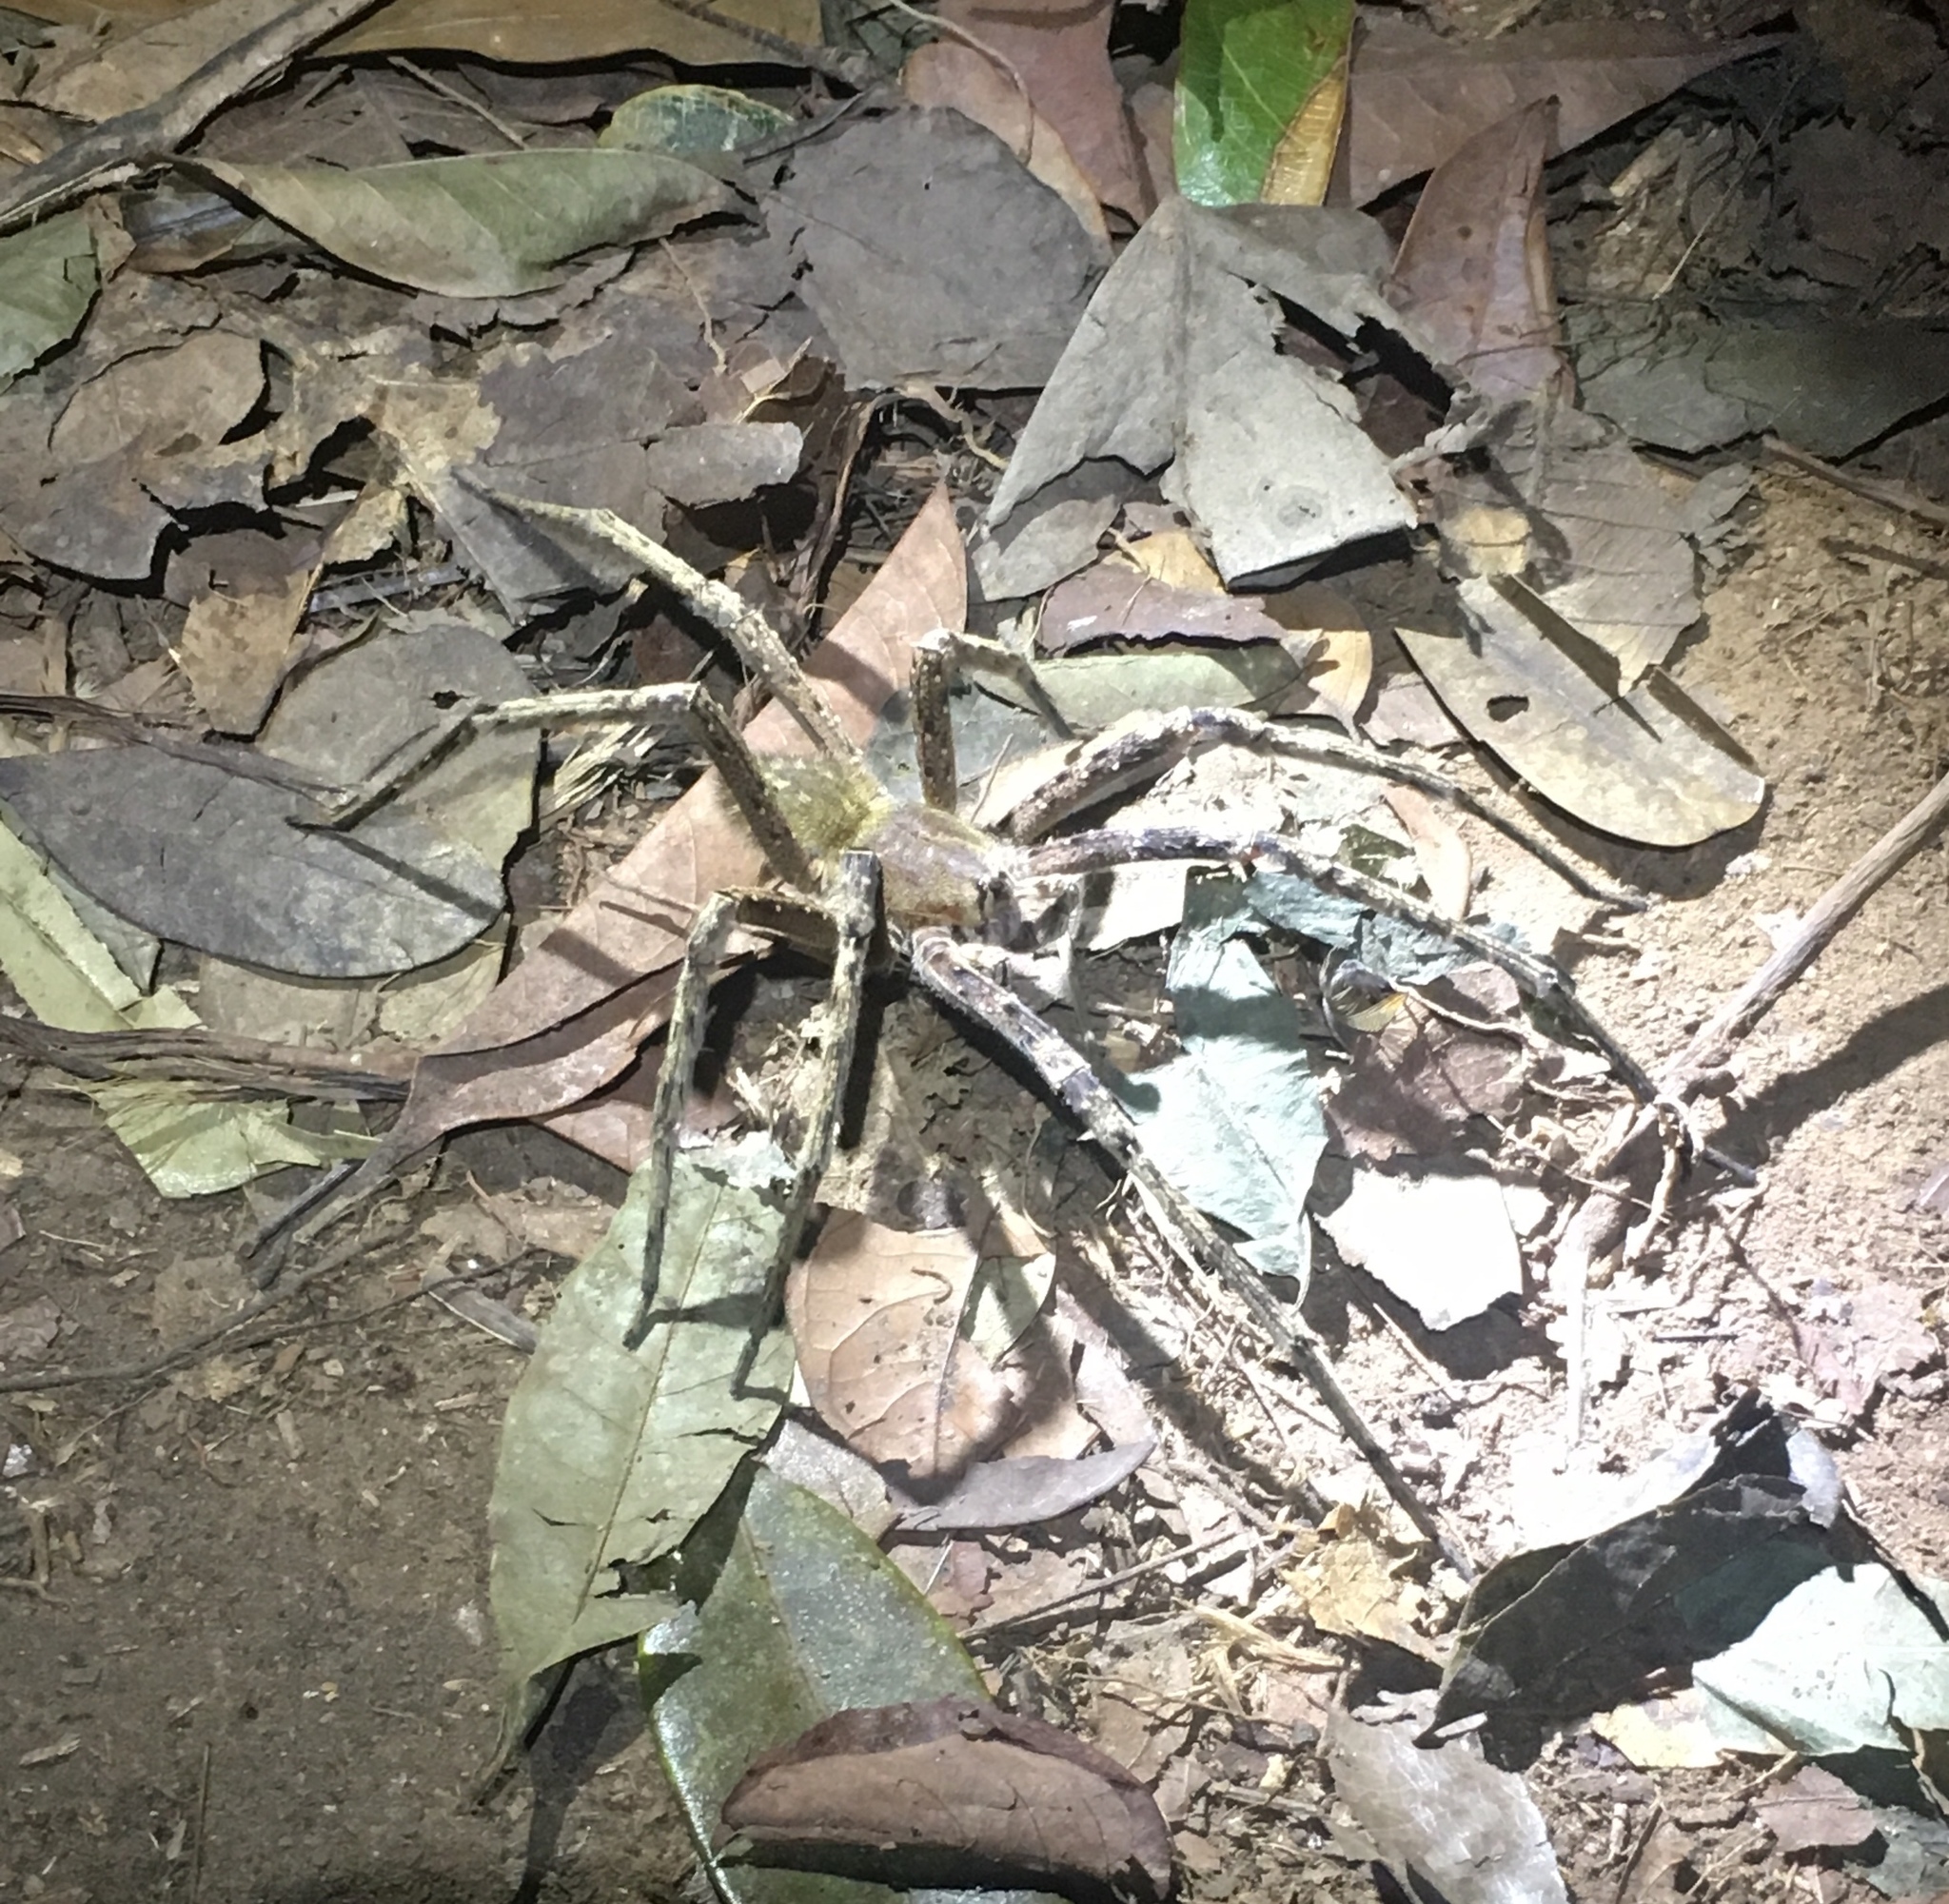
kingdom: Animalia
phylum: Arthropoda
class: Arachnida
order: Araneae
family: Ctenidae
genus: Phoneutria
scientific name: Phoneutria fera
